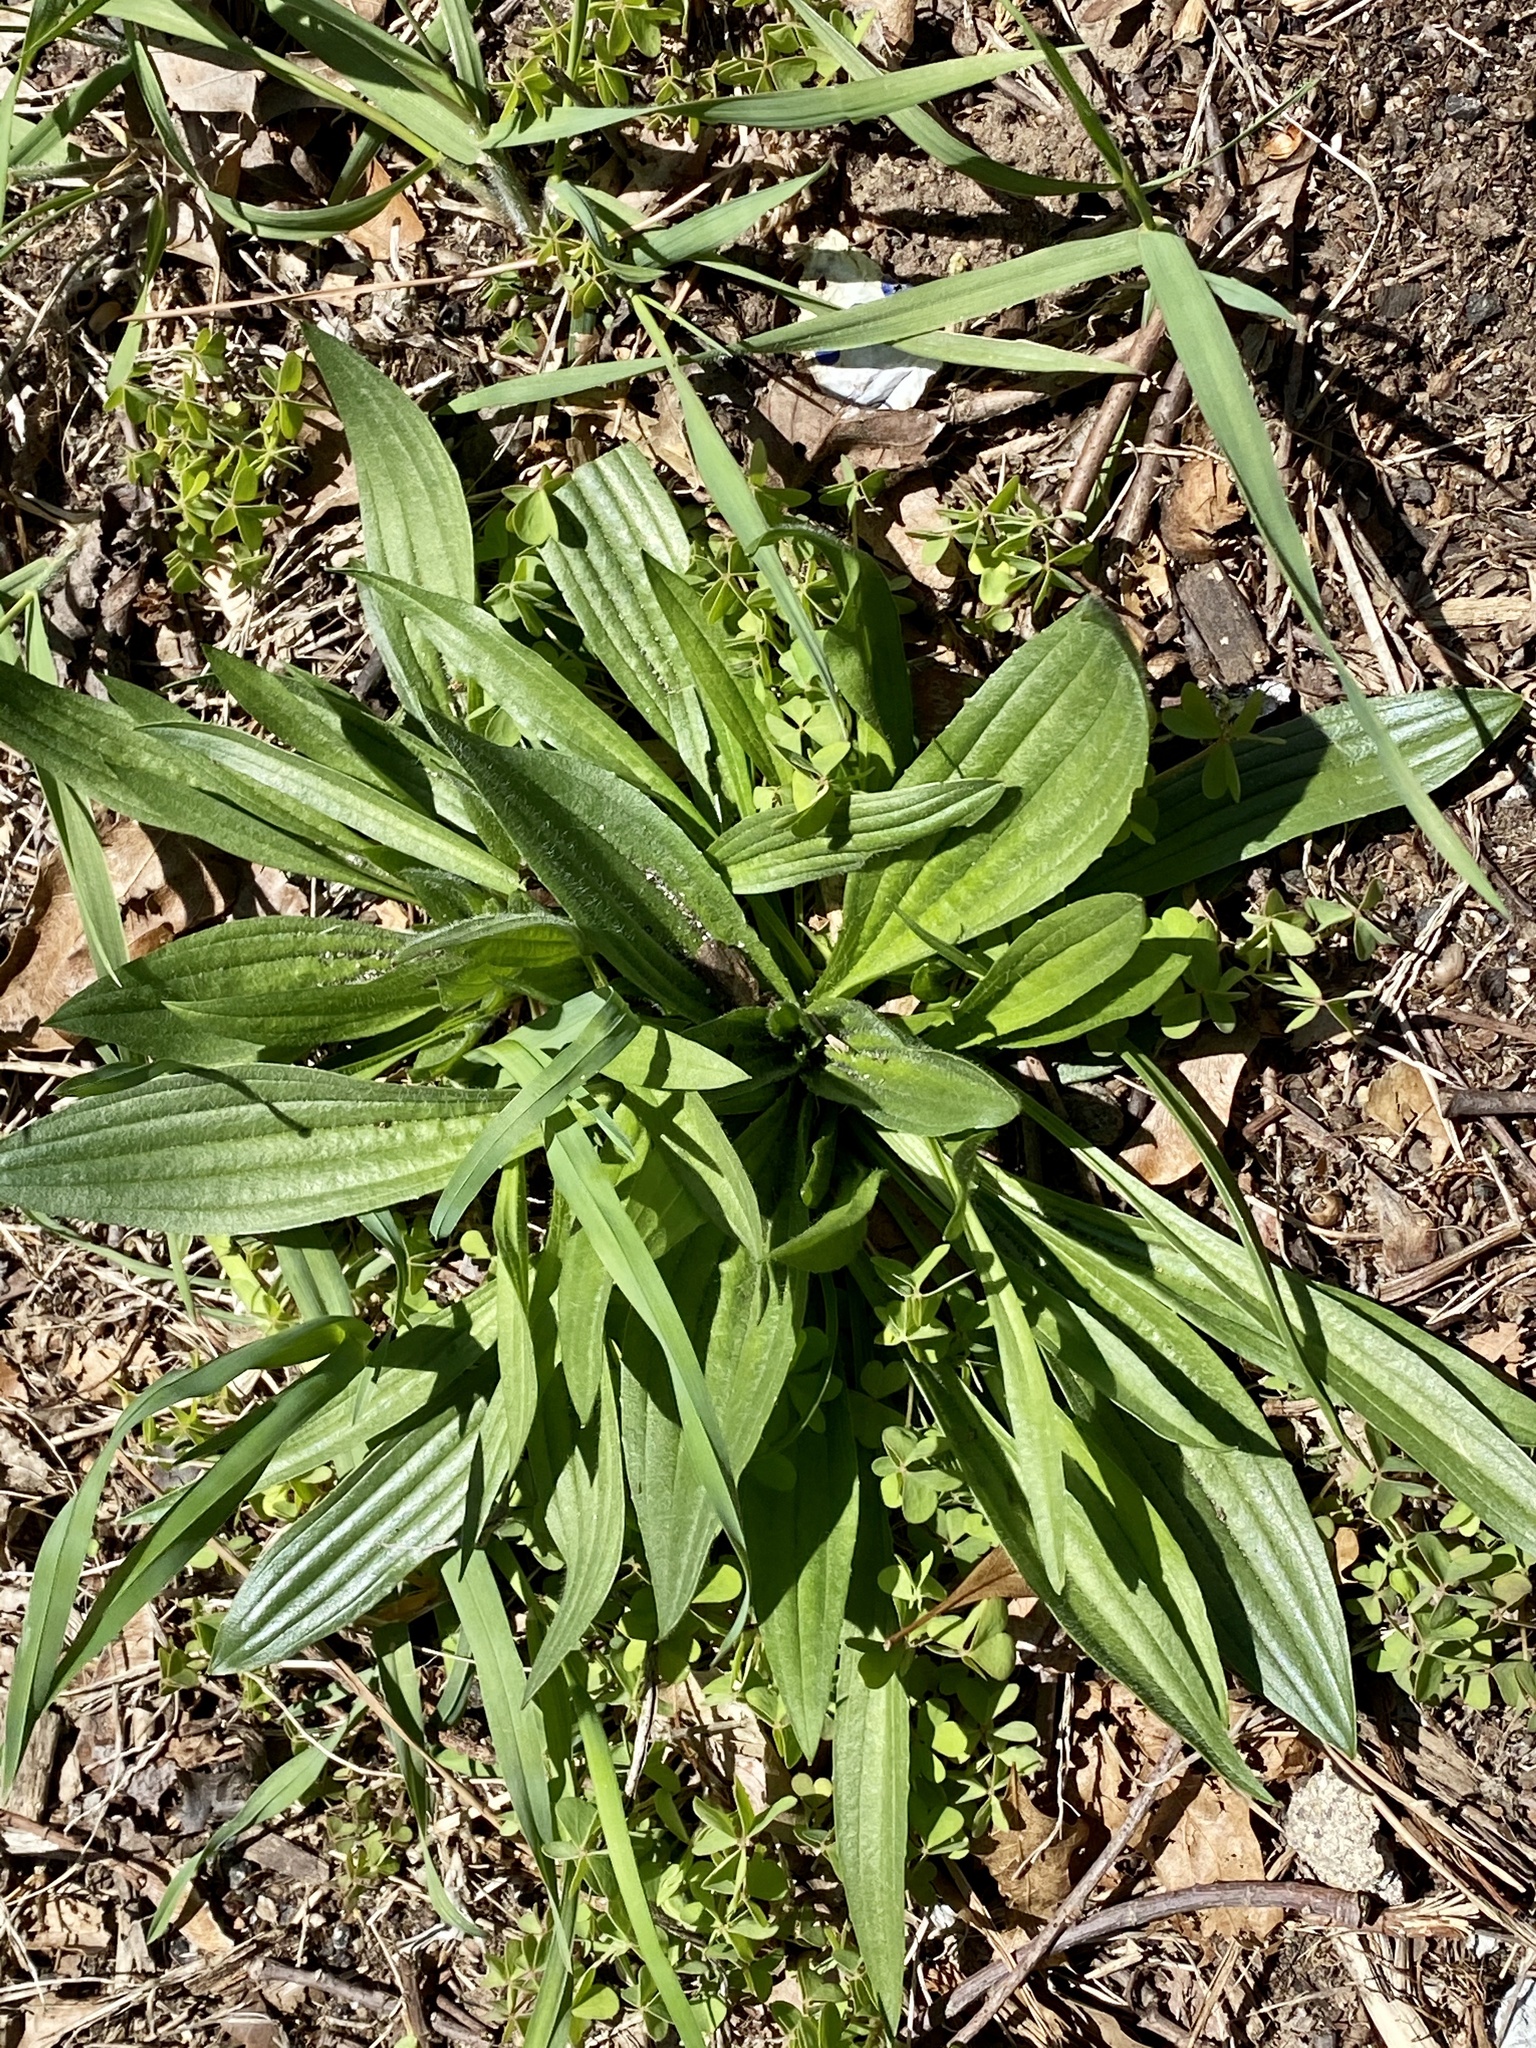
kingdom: Plantae
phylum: Tracheophyta
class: Magnoliopsida
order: Lamiales
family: Plantaginaceae
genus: Plantago
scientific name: Plantago lanceolata
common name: Ribwort plantain
